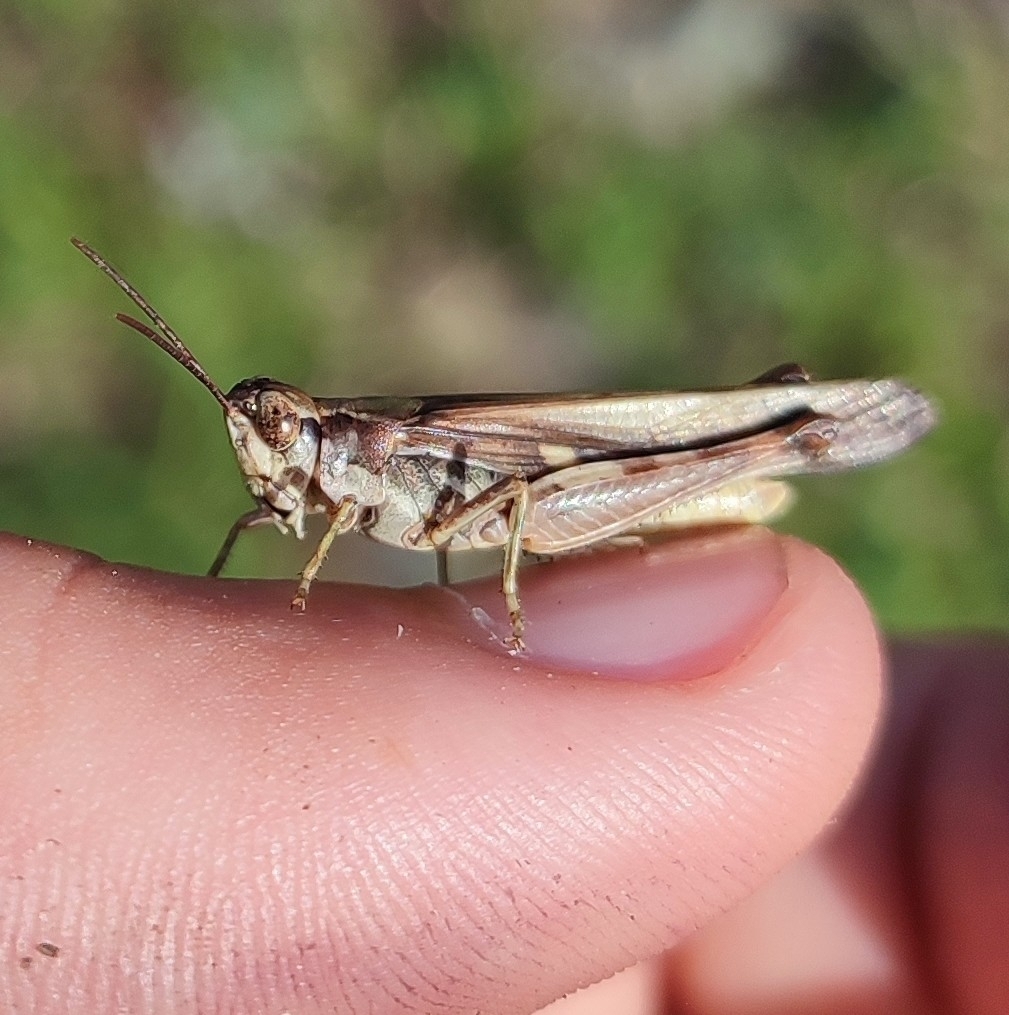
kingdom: Animalia
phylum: Arthropoda
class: Insecta
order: Orthoptera
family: Acrididae
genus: Aiolopus
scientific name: Aiolopus puissanti
